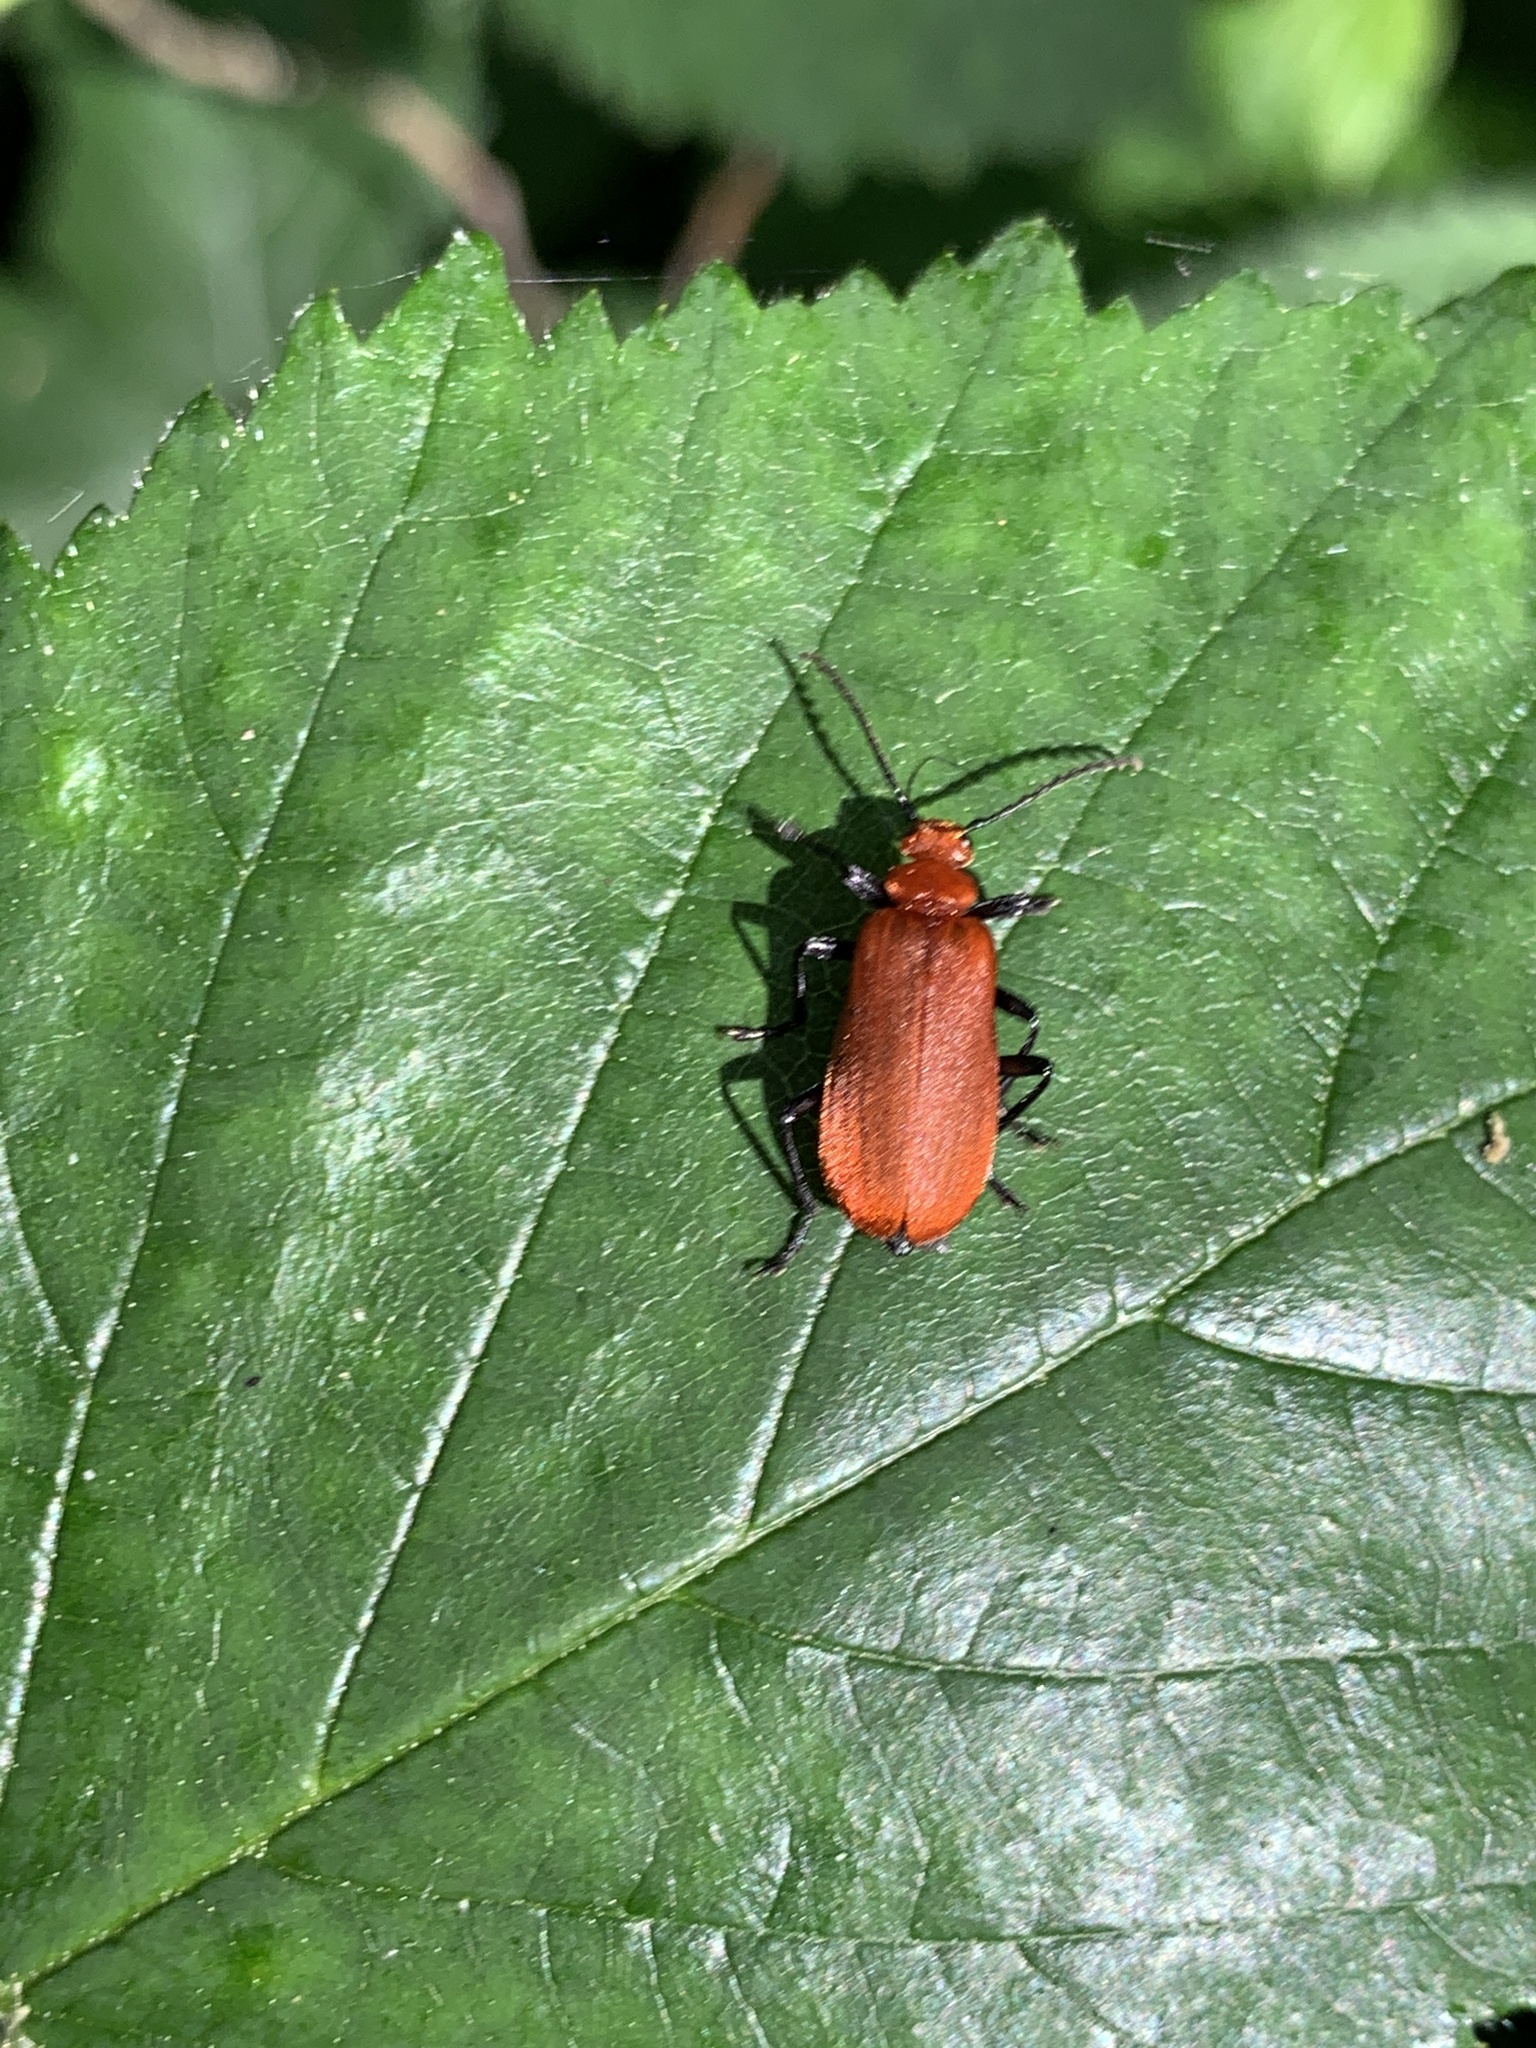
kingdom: Animalia
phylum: Arthropoda
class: Insecta
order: Coleoptera
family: Pyrochroidae
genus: Pyrochroa
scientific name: Pyrochroa serraticornis
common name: Red-headed cardinal beetle
